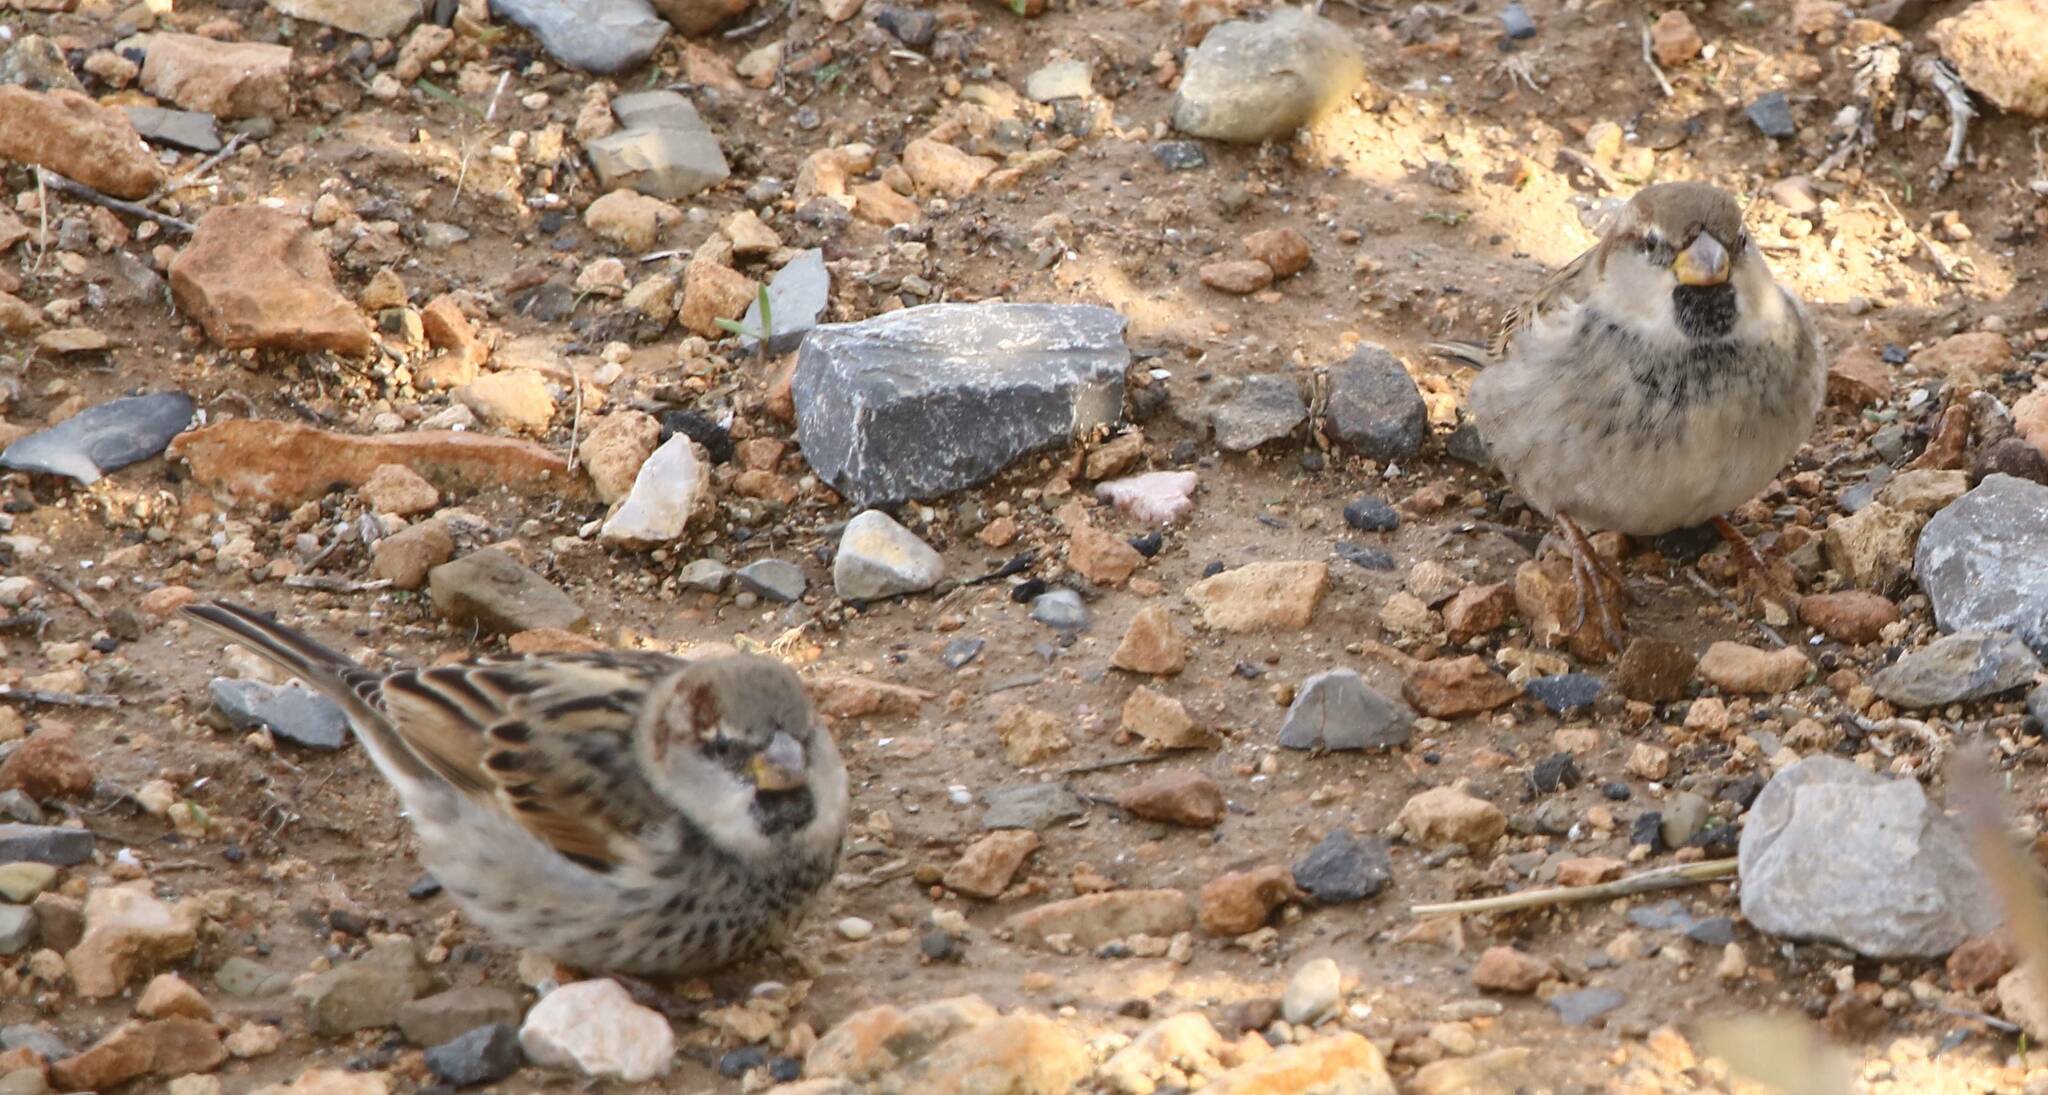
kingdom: Animalia
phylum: Chordata
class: Aves
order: Passeriformes
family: Passeridae
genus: Passer
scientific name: Passer domesticus
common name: House sparrow
